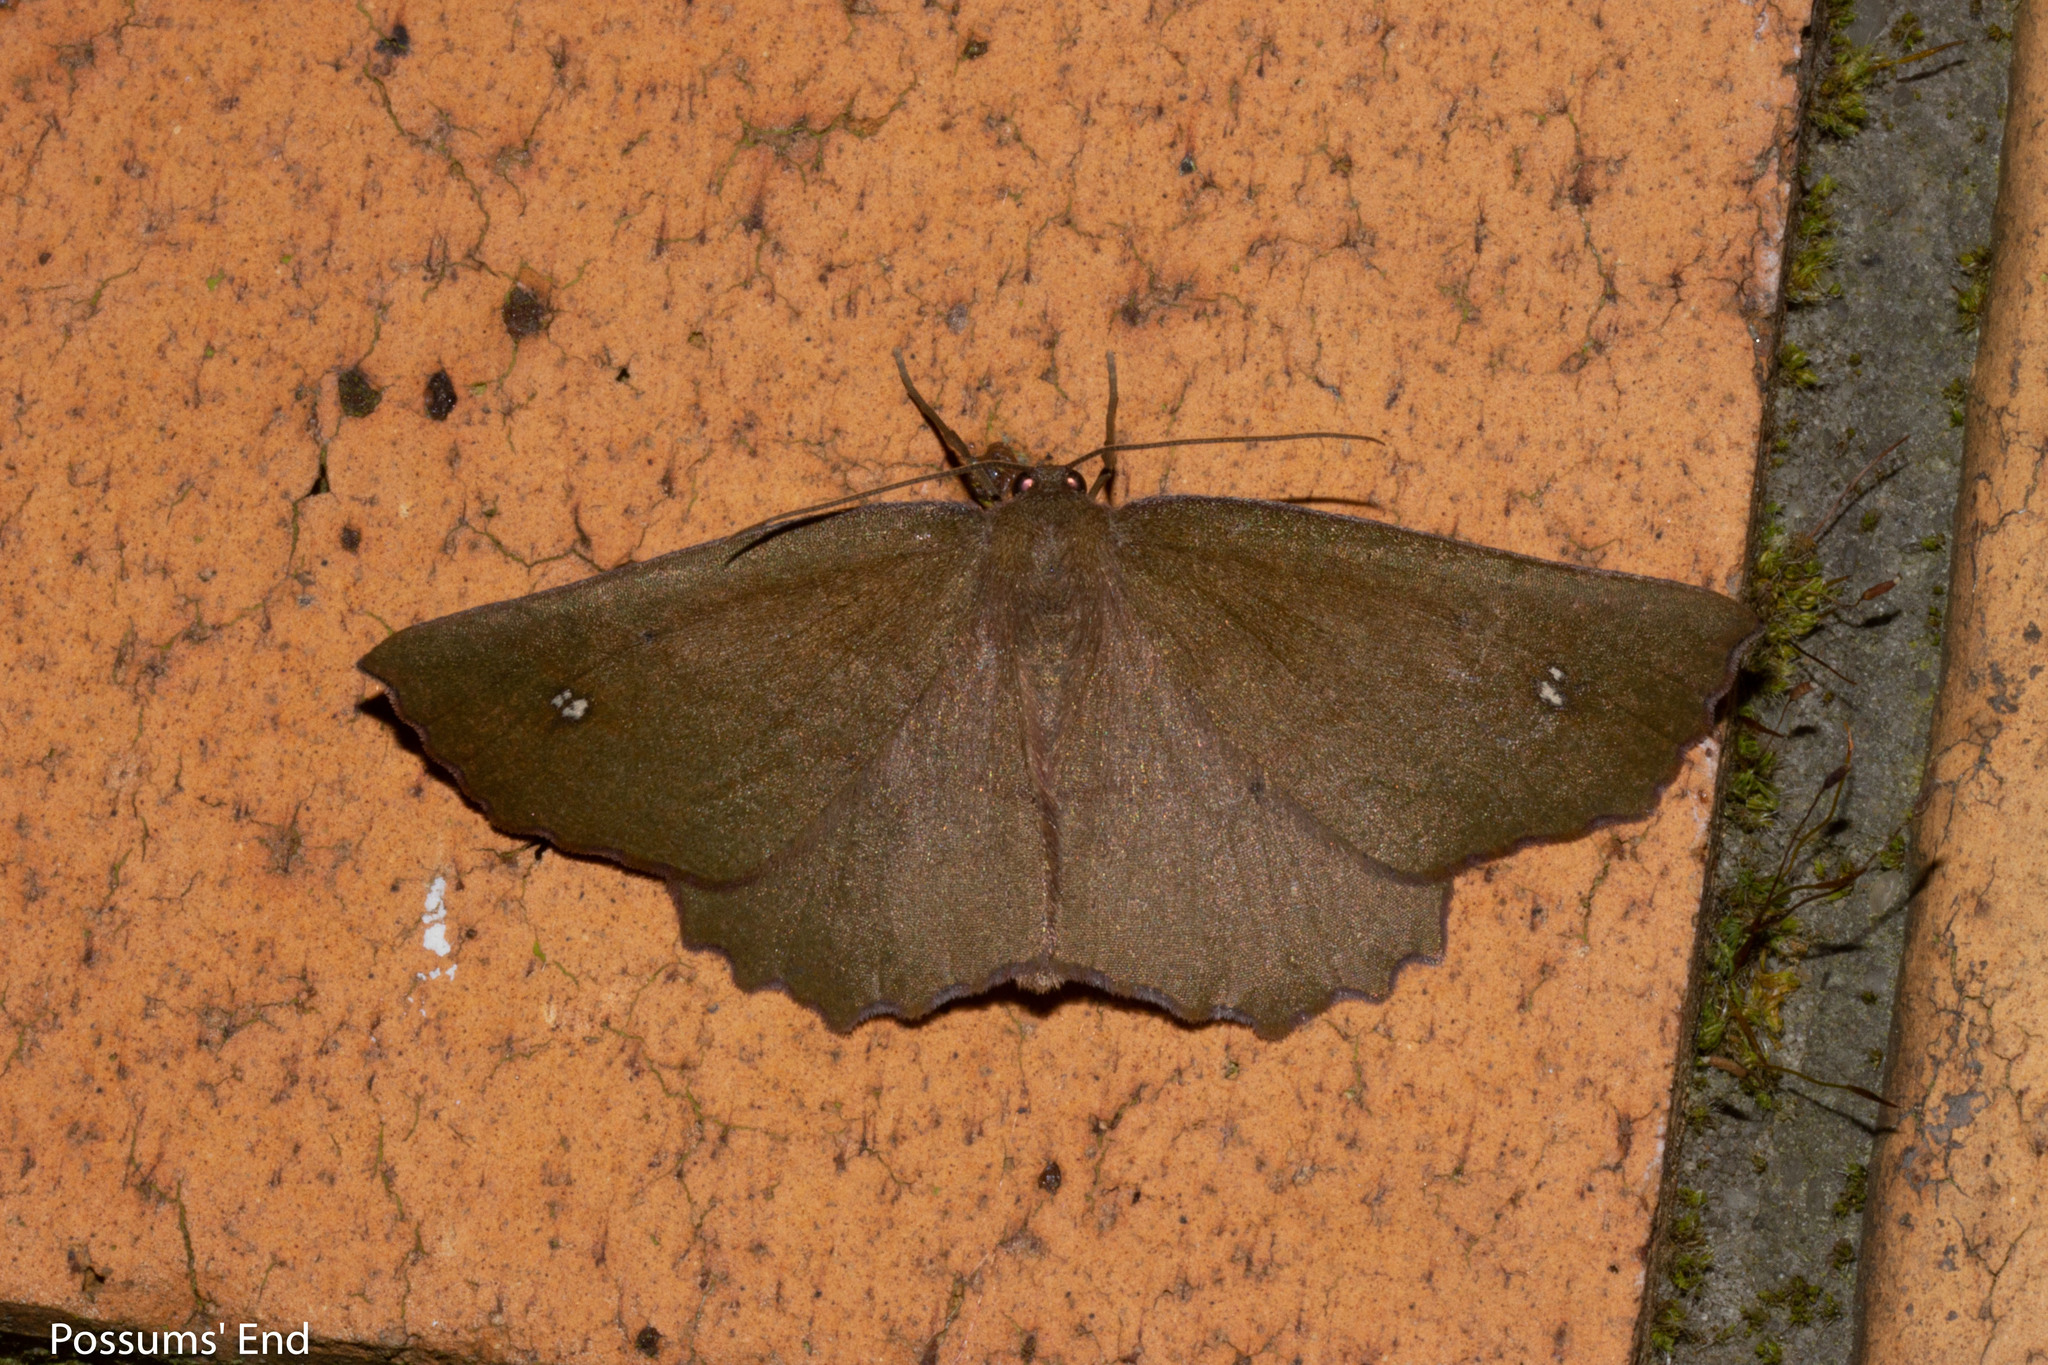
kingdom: Animalia
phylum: Arthropoda
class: Insecta
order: Lepidoptera
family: Geometridae
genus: Xyridacma
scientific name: Xyridacma ustaria
